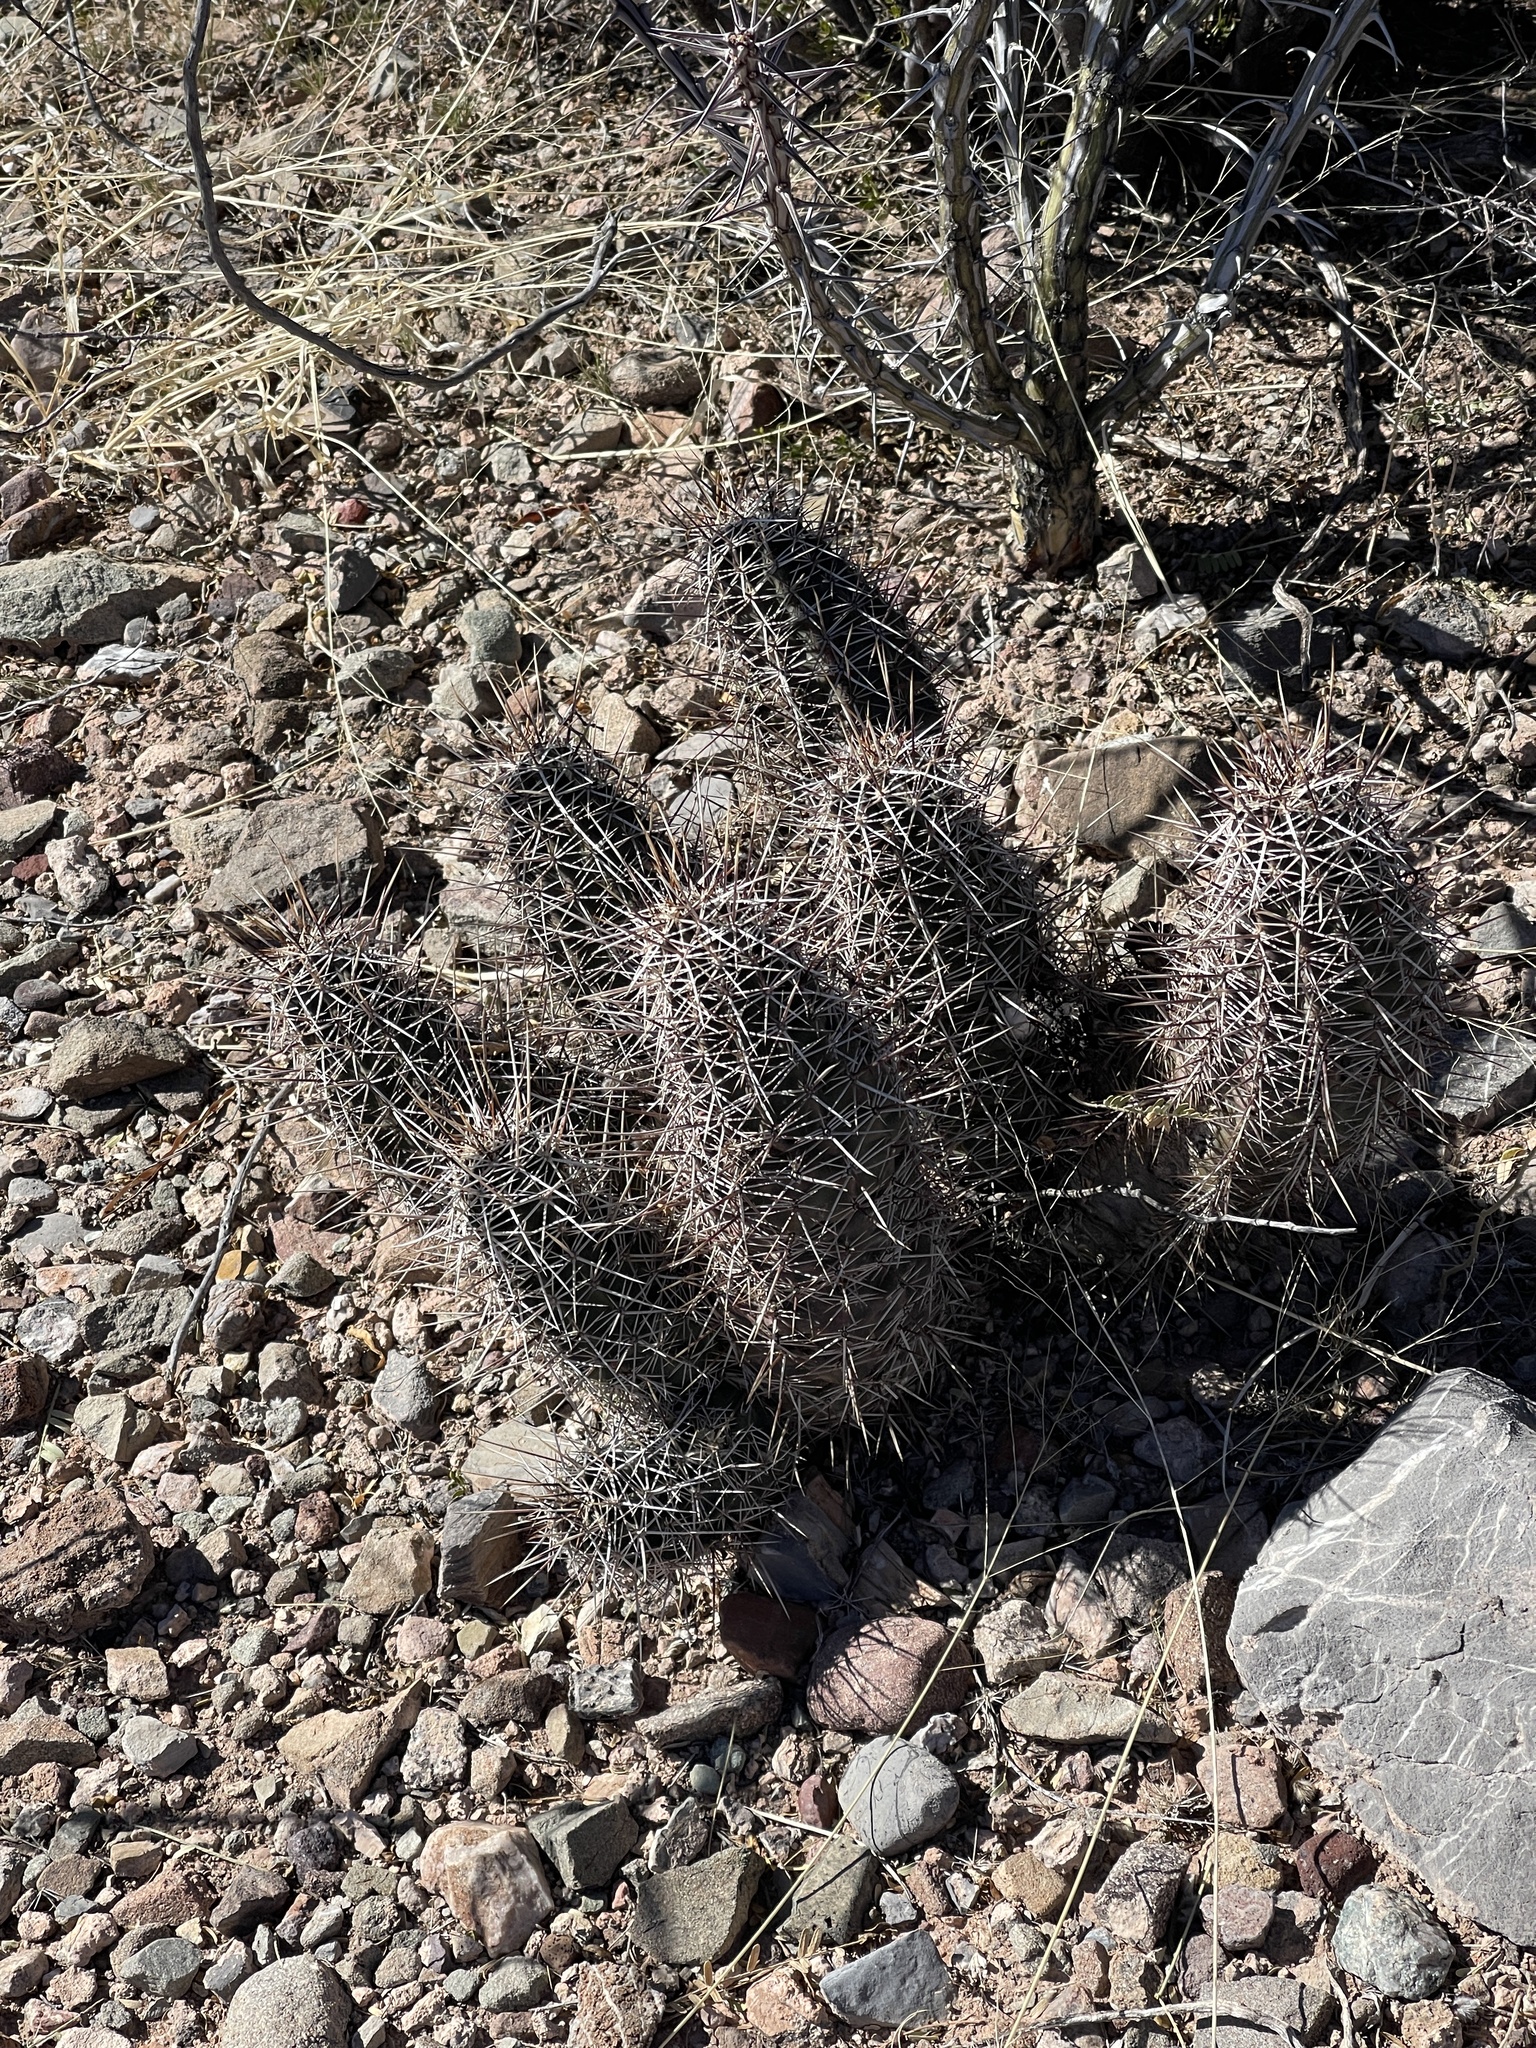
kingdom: Plantae
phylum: Tracheophyta
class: Magnoliopsida
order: Caryophyllales
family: Cactaceae
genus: Echinocereus
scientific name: Echinocereus fasciculatus
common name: Bundle hedgehog
